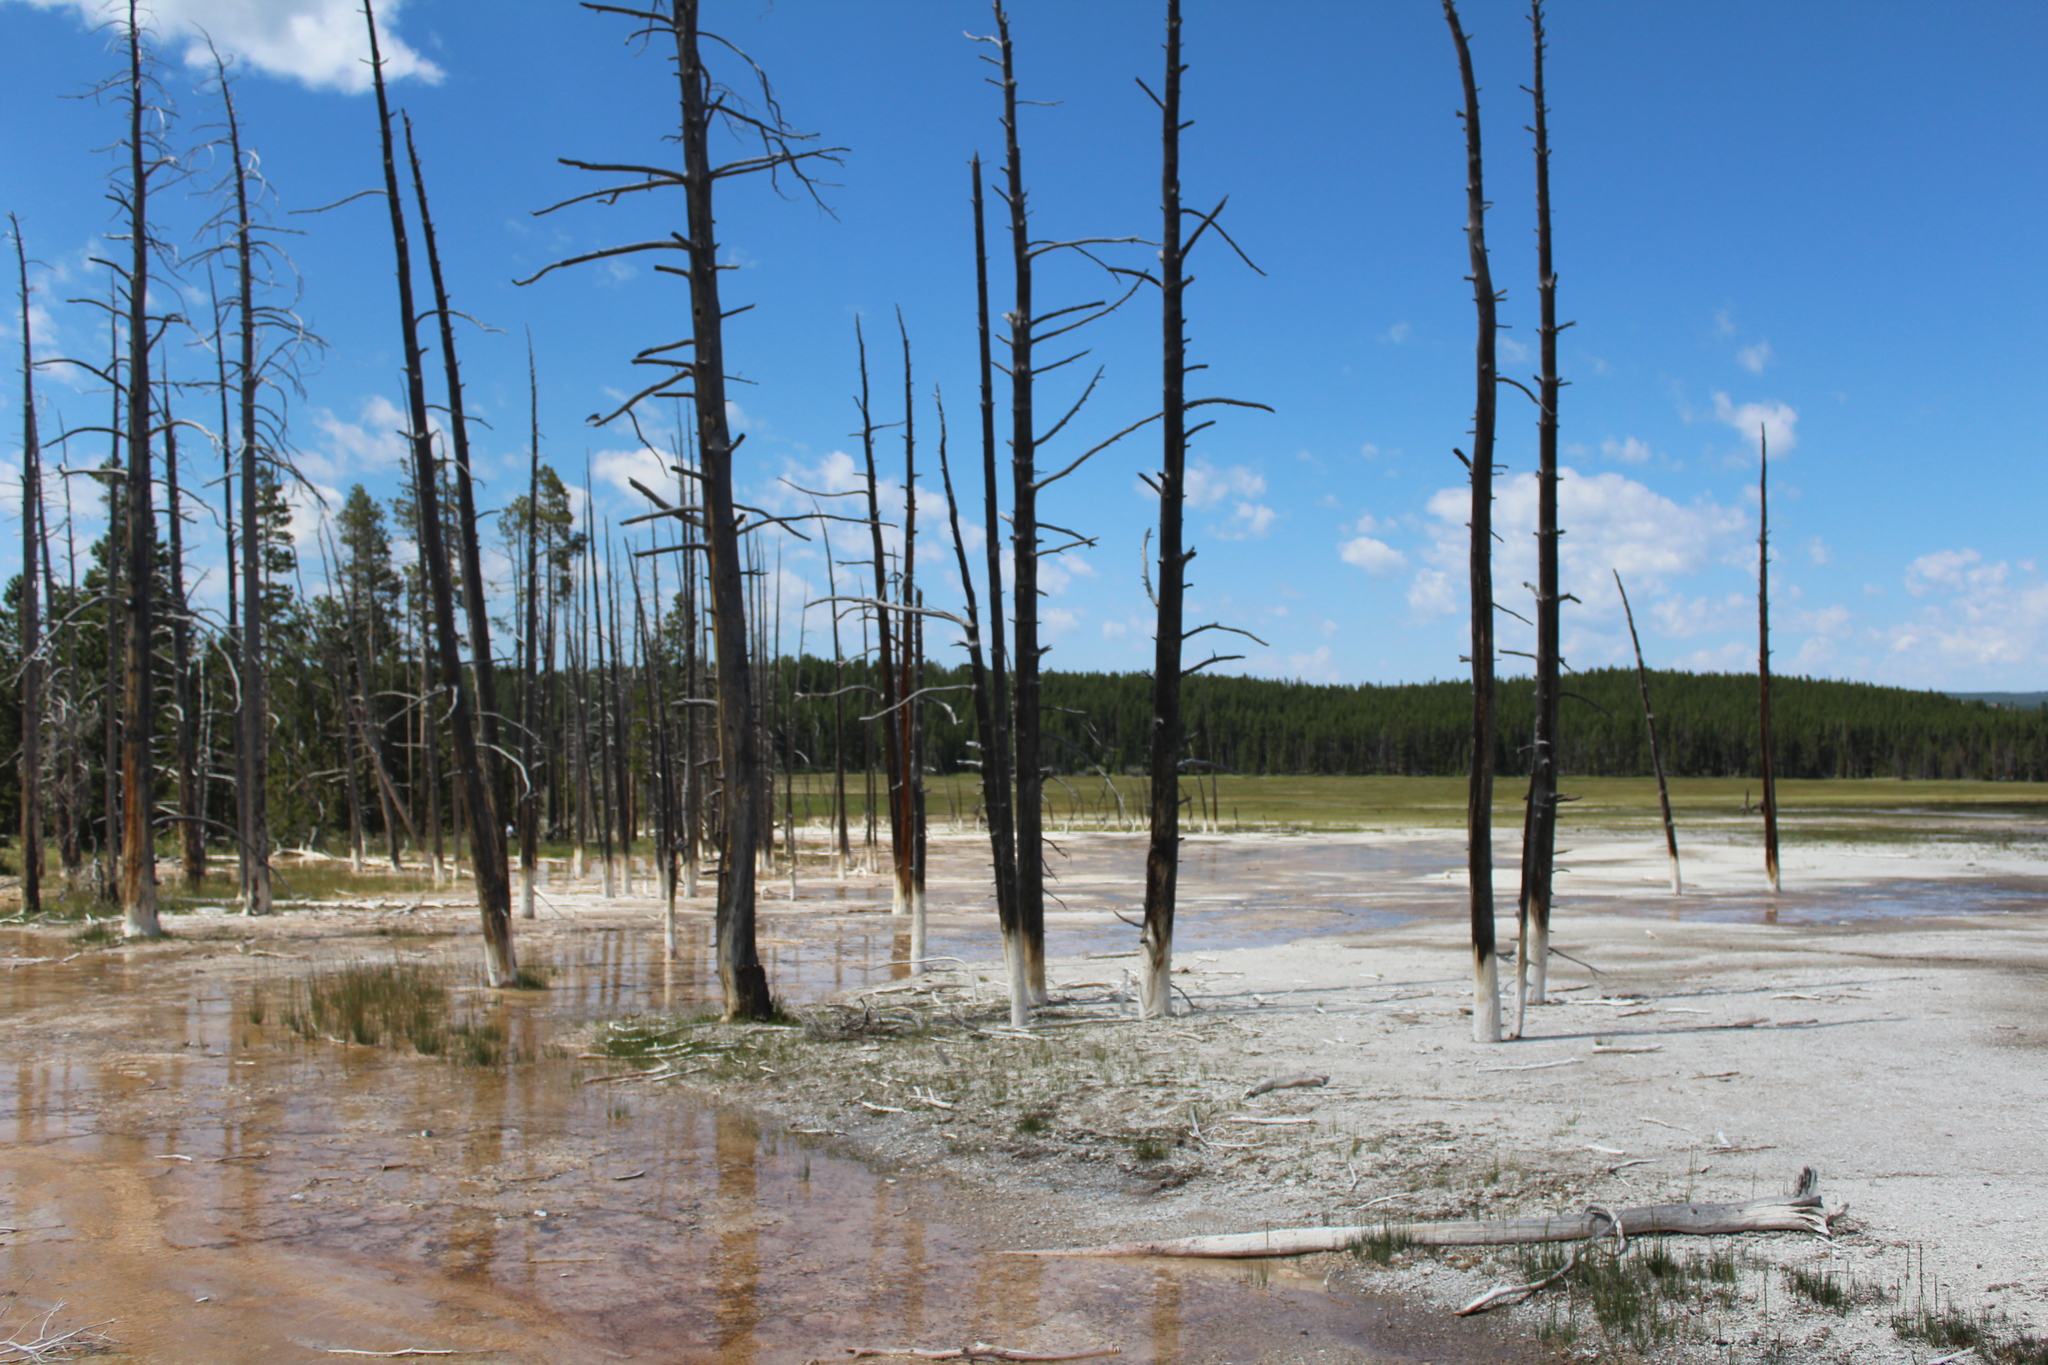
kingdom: Plantae
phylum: Tracheophyta
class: Pinopsida
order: Pinales
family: Pinaceae
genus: Pinus
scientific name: Pinus contorta
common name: Lodgepole pine
